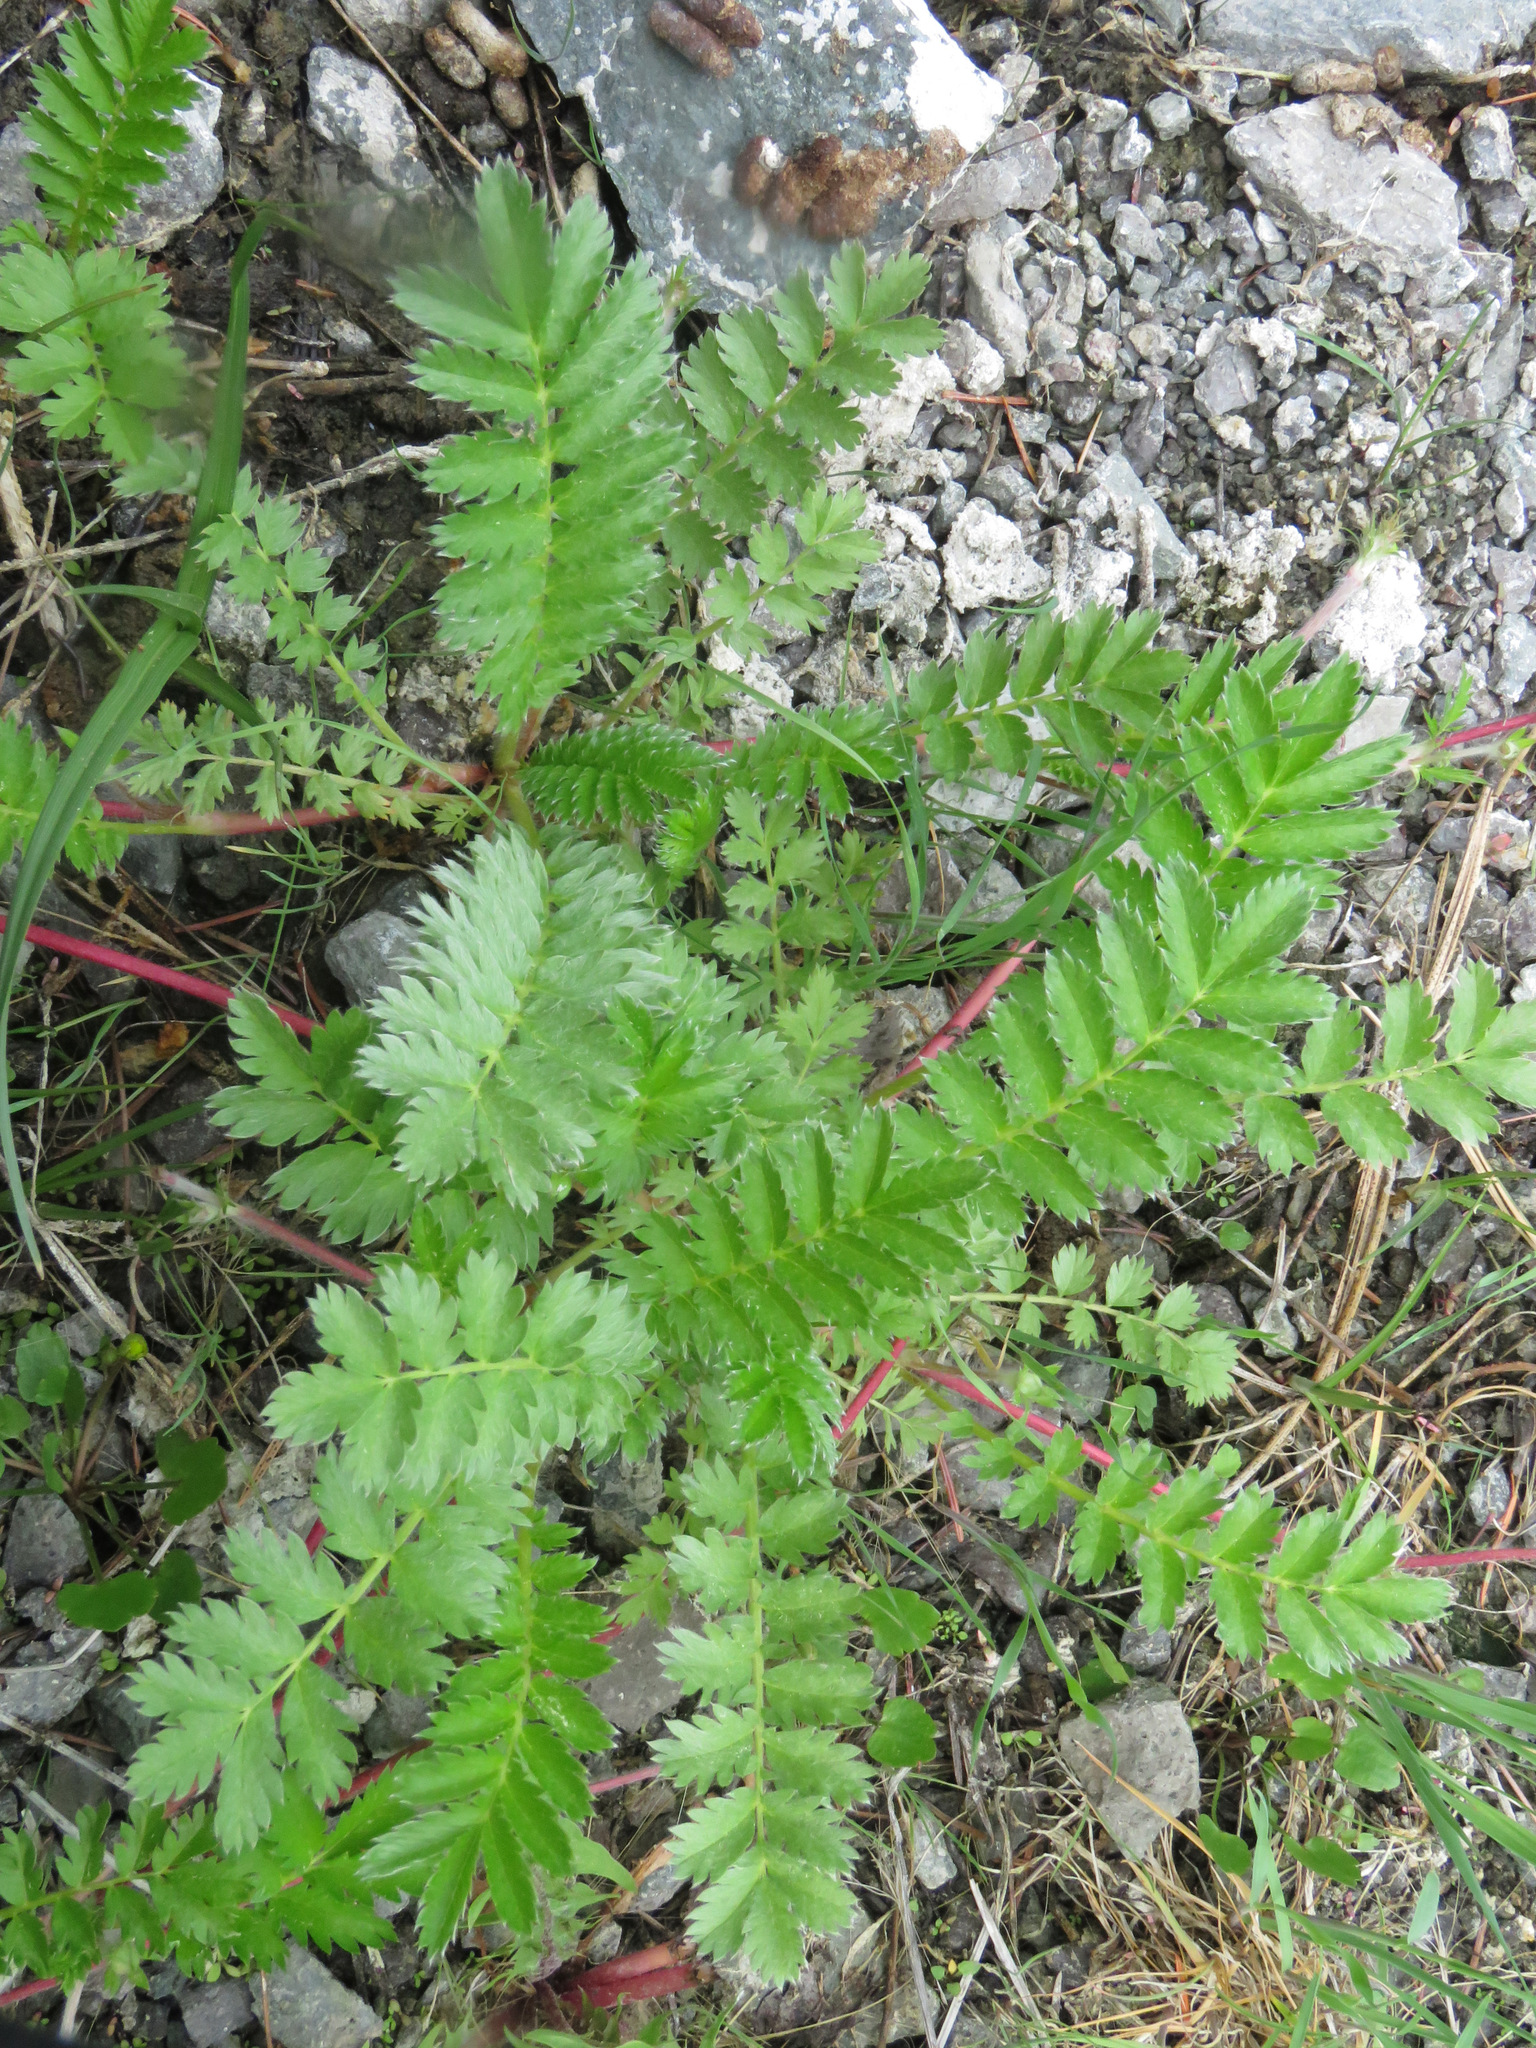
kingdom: Plantae
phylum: Tracheophyta
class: Magnoliopsida
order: Rosales
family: Rosaceae
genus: Argentina
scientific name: Argentina anserina
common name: Common silverweed
